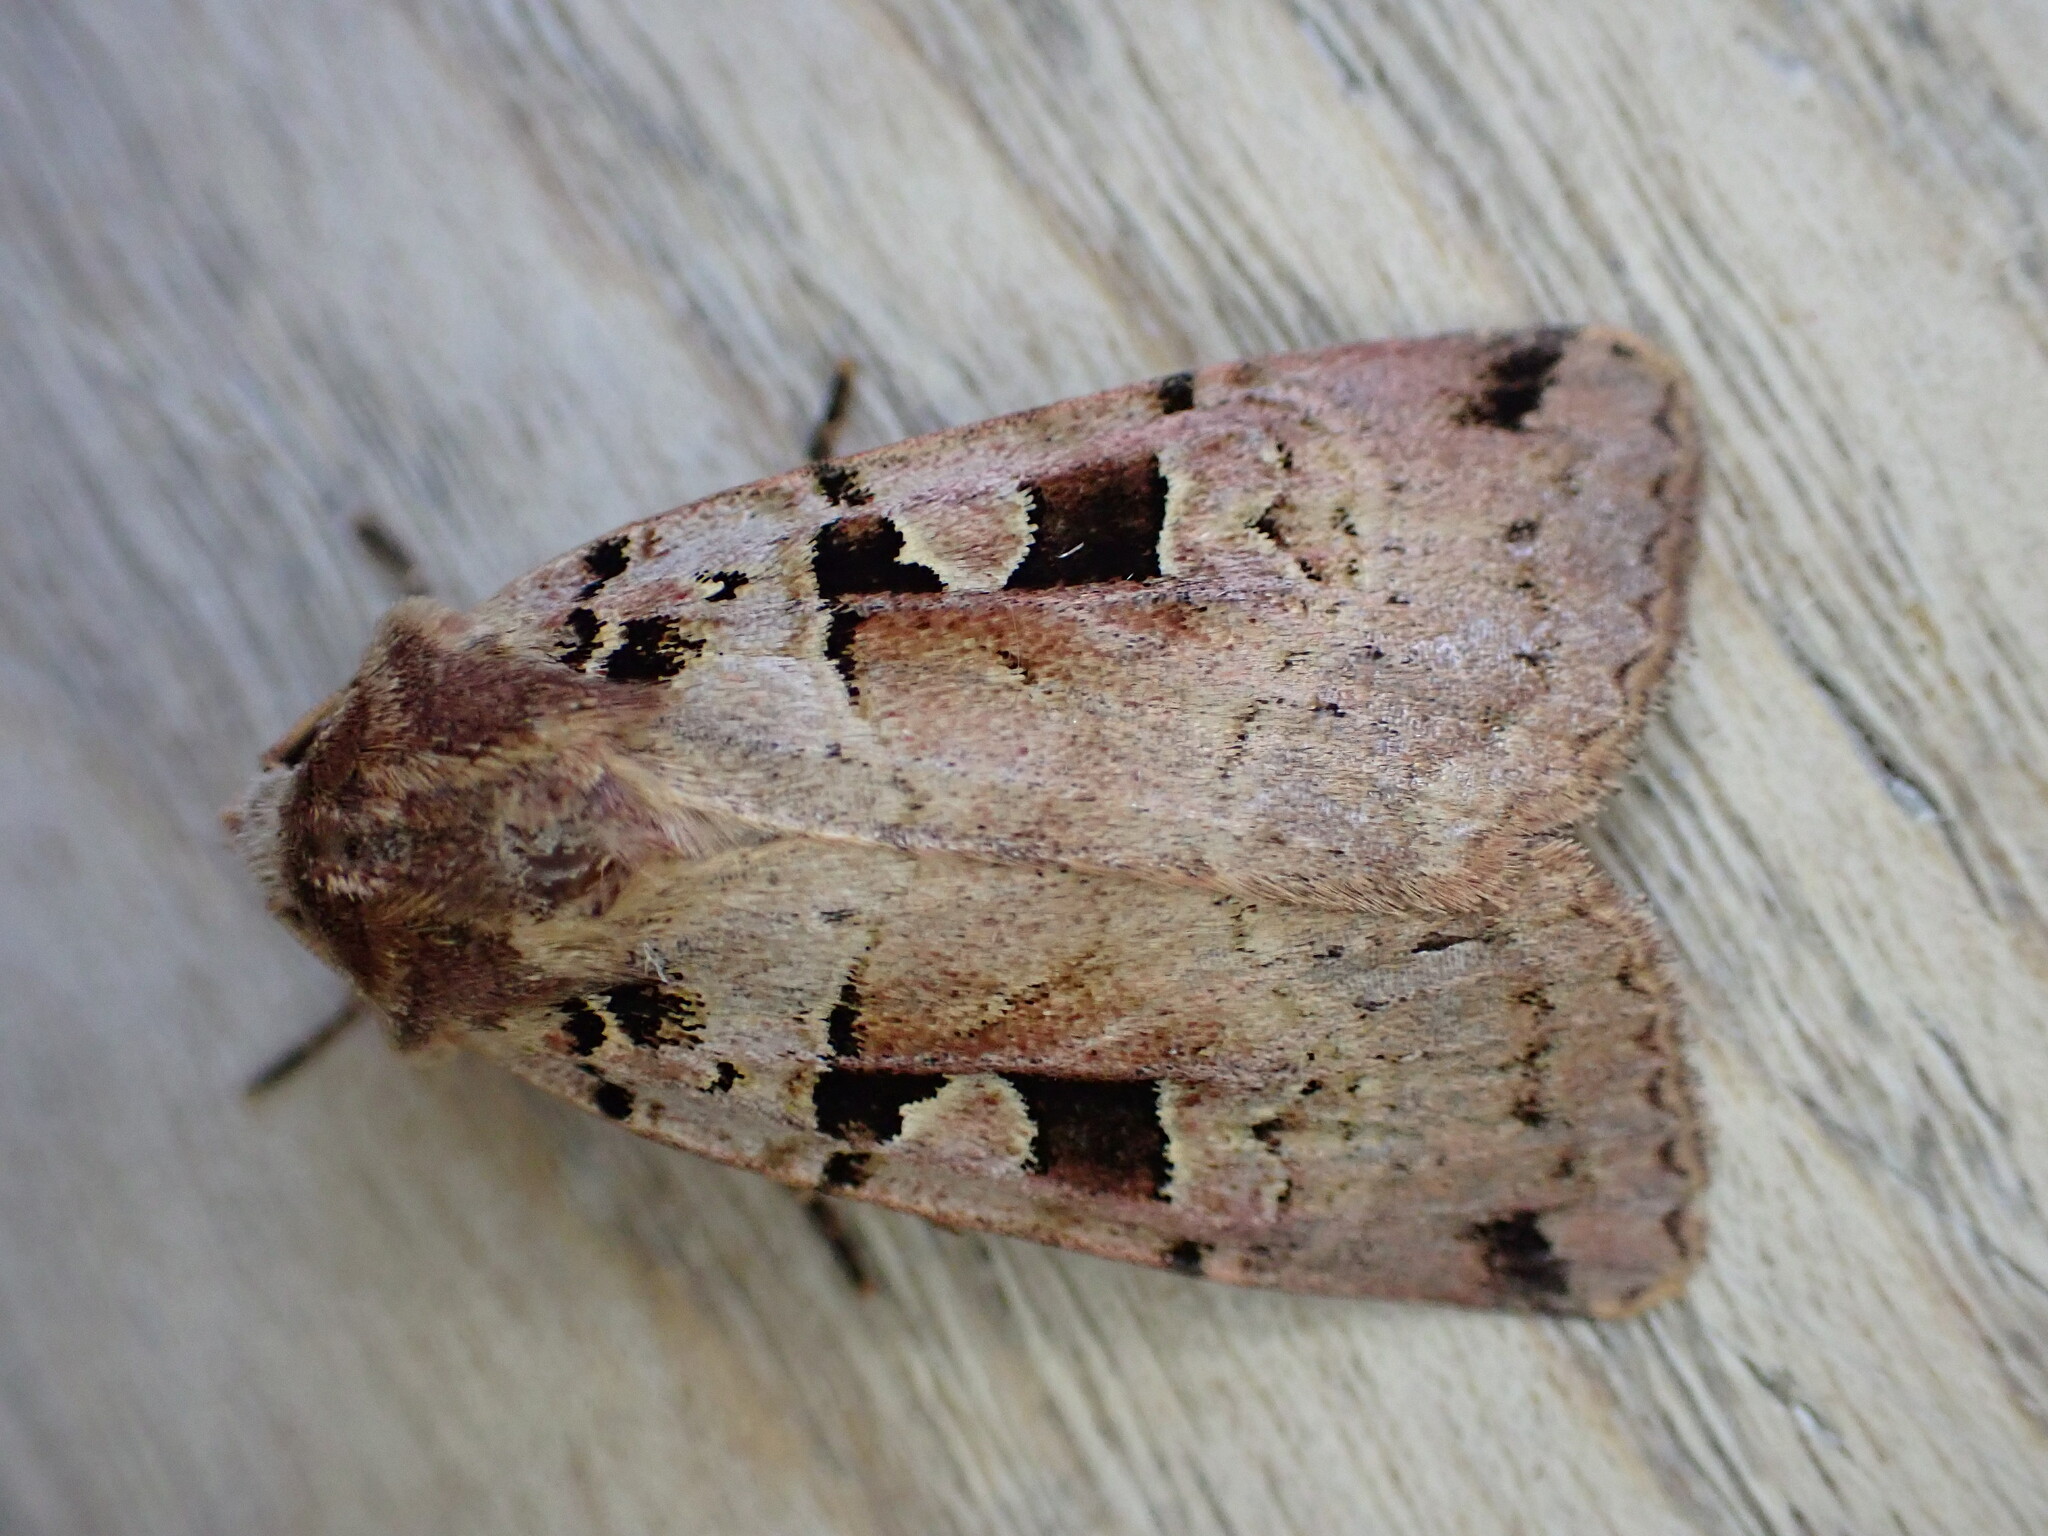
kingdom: Animalia
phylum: Arthropoda
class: Insecta
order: Lepidoptera
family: Noctuidae
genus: Xestia
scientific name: Xestia triangulum
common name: Double square-spot
